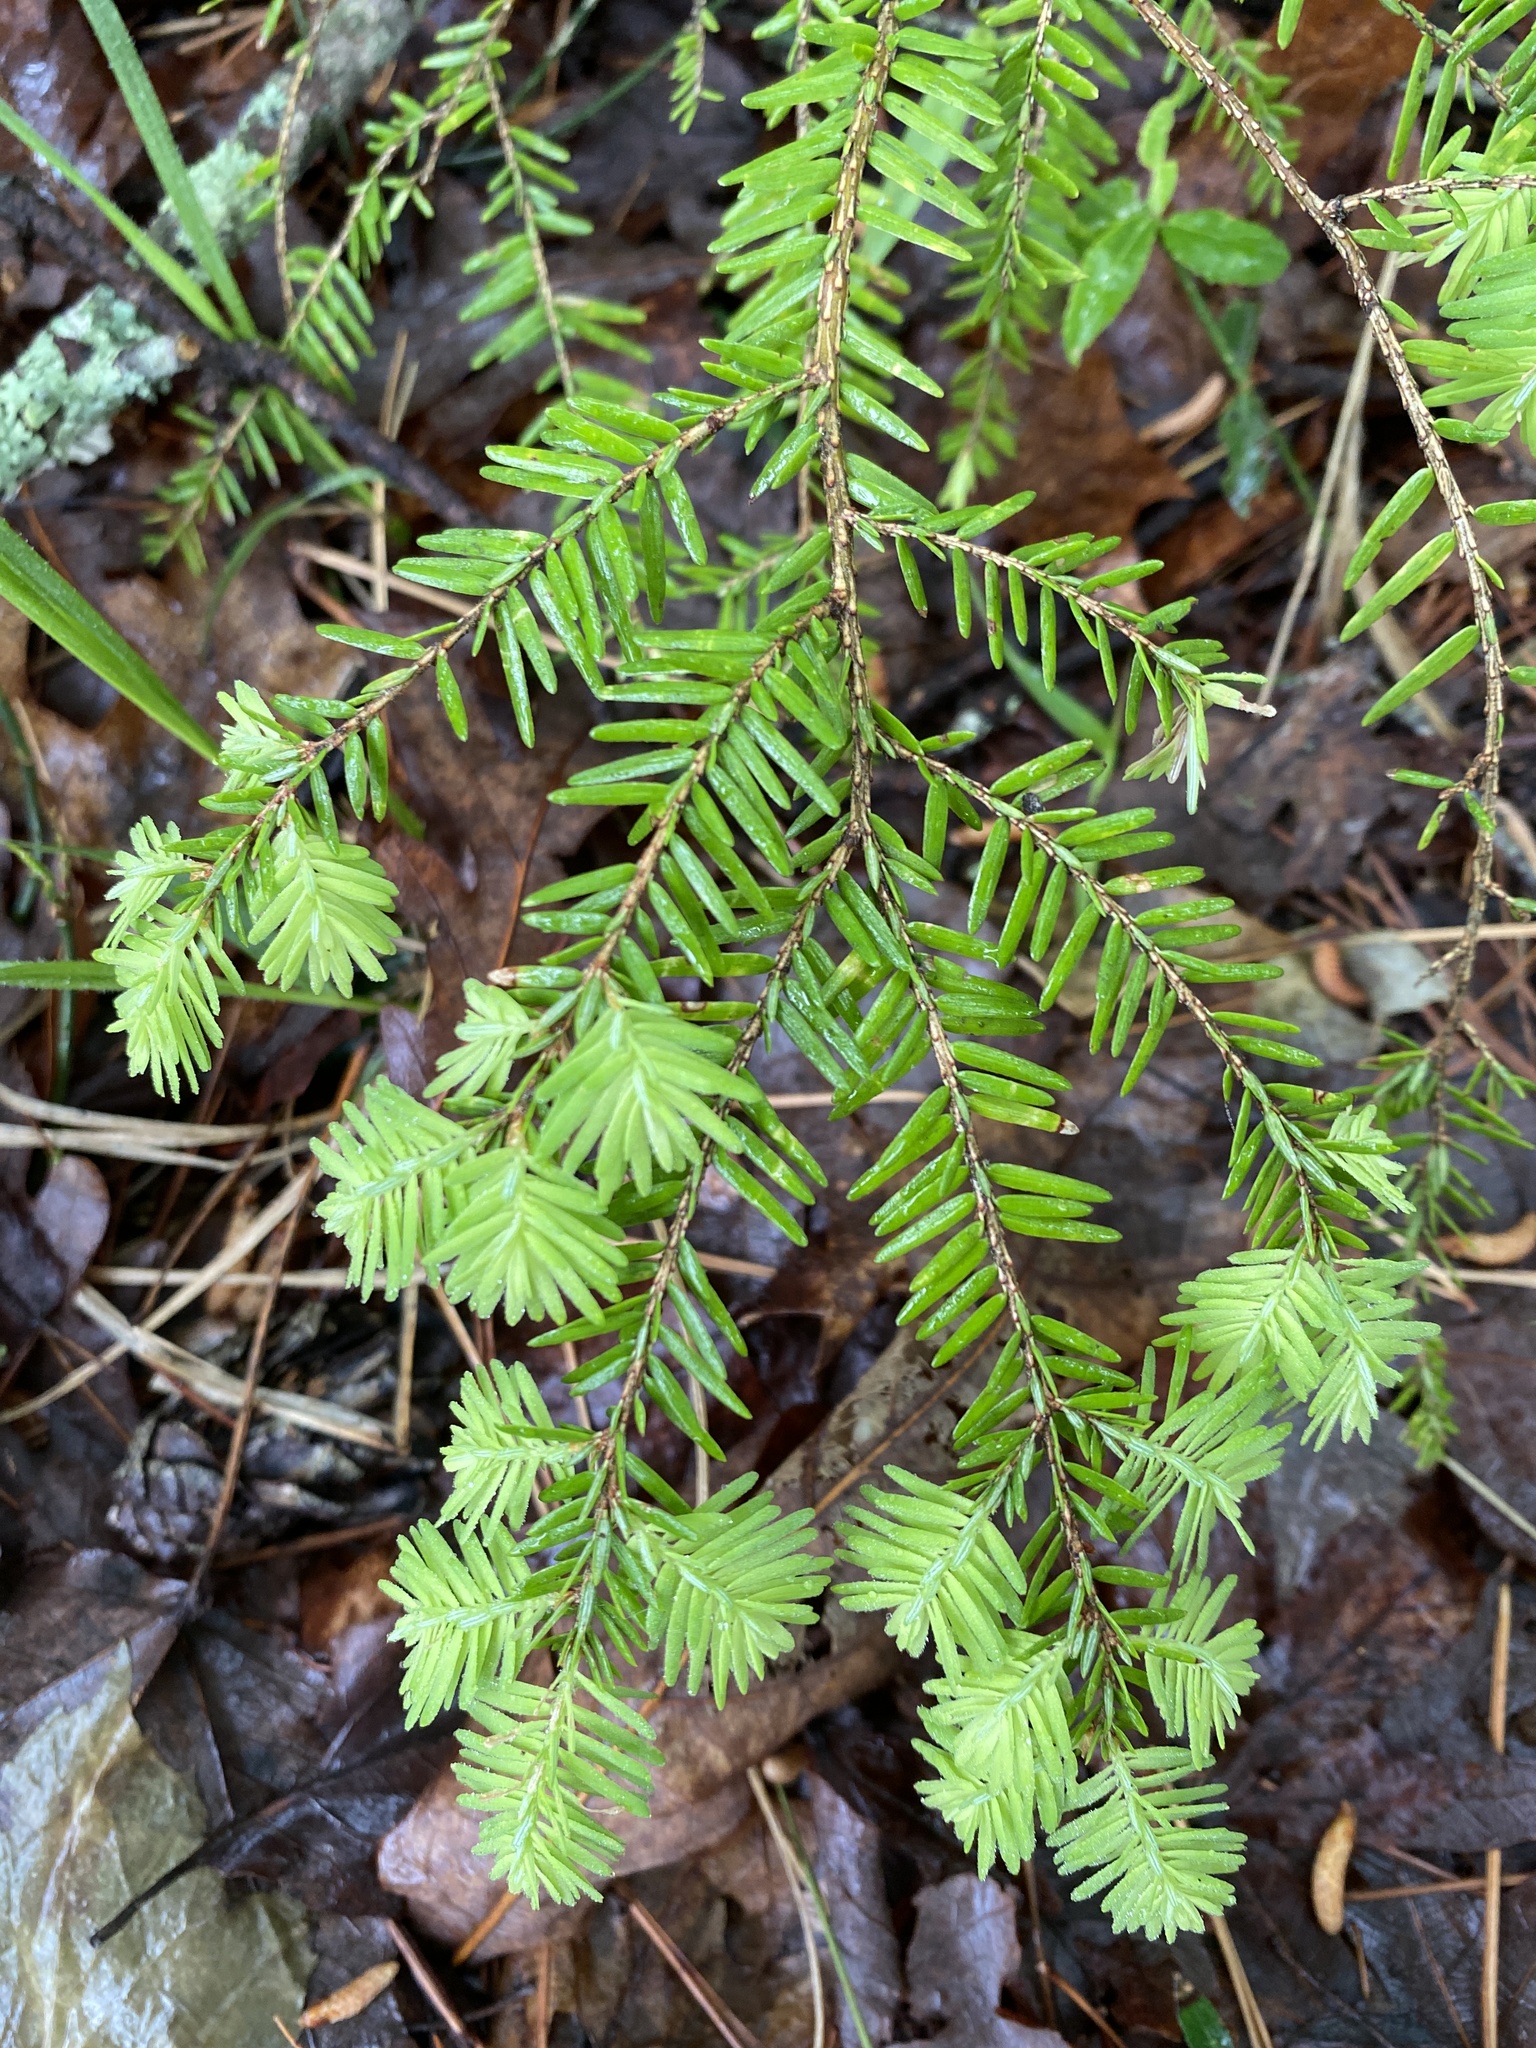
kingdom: Plantae
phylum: Tracheophyta
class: Pinopsida
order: Pinales
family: Pinaceae
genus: Tsuga
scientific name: Tsuga canadensis
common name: Eastern hemlock
